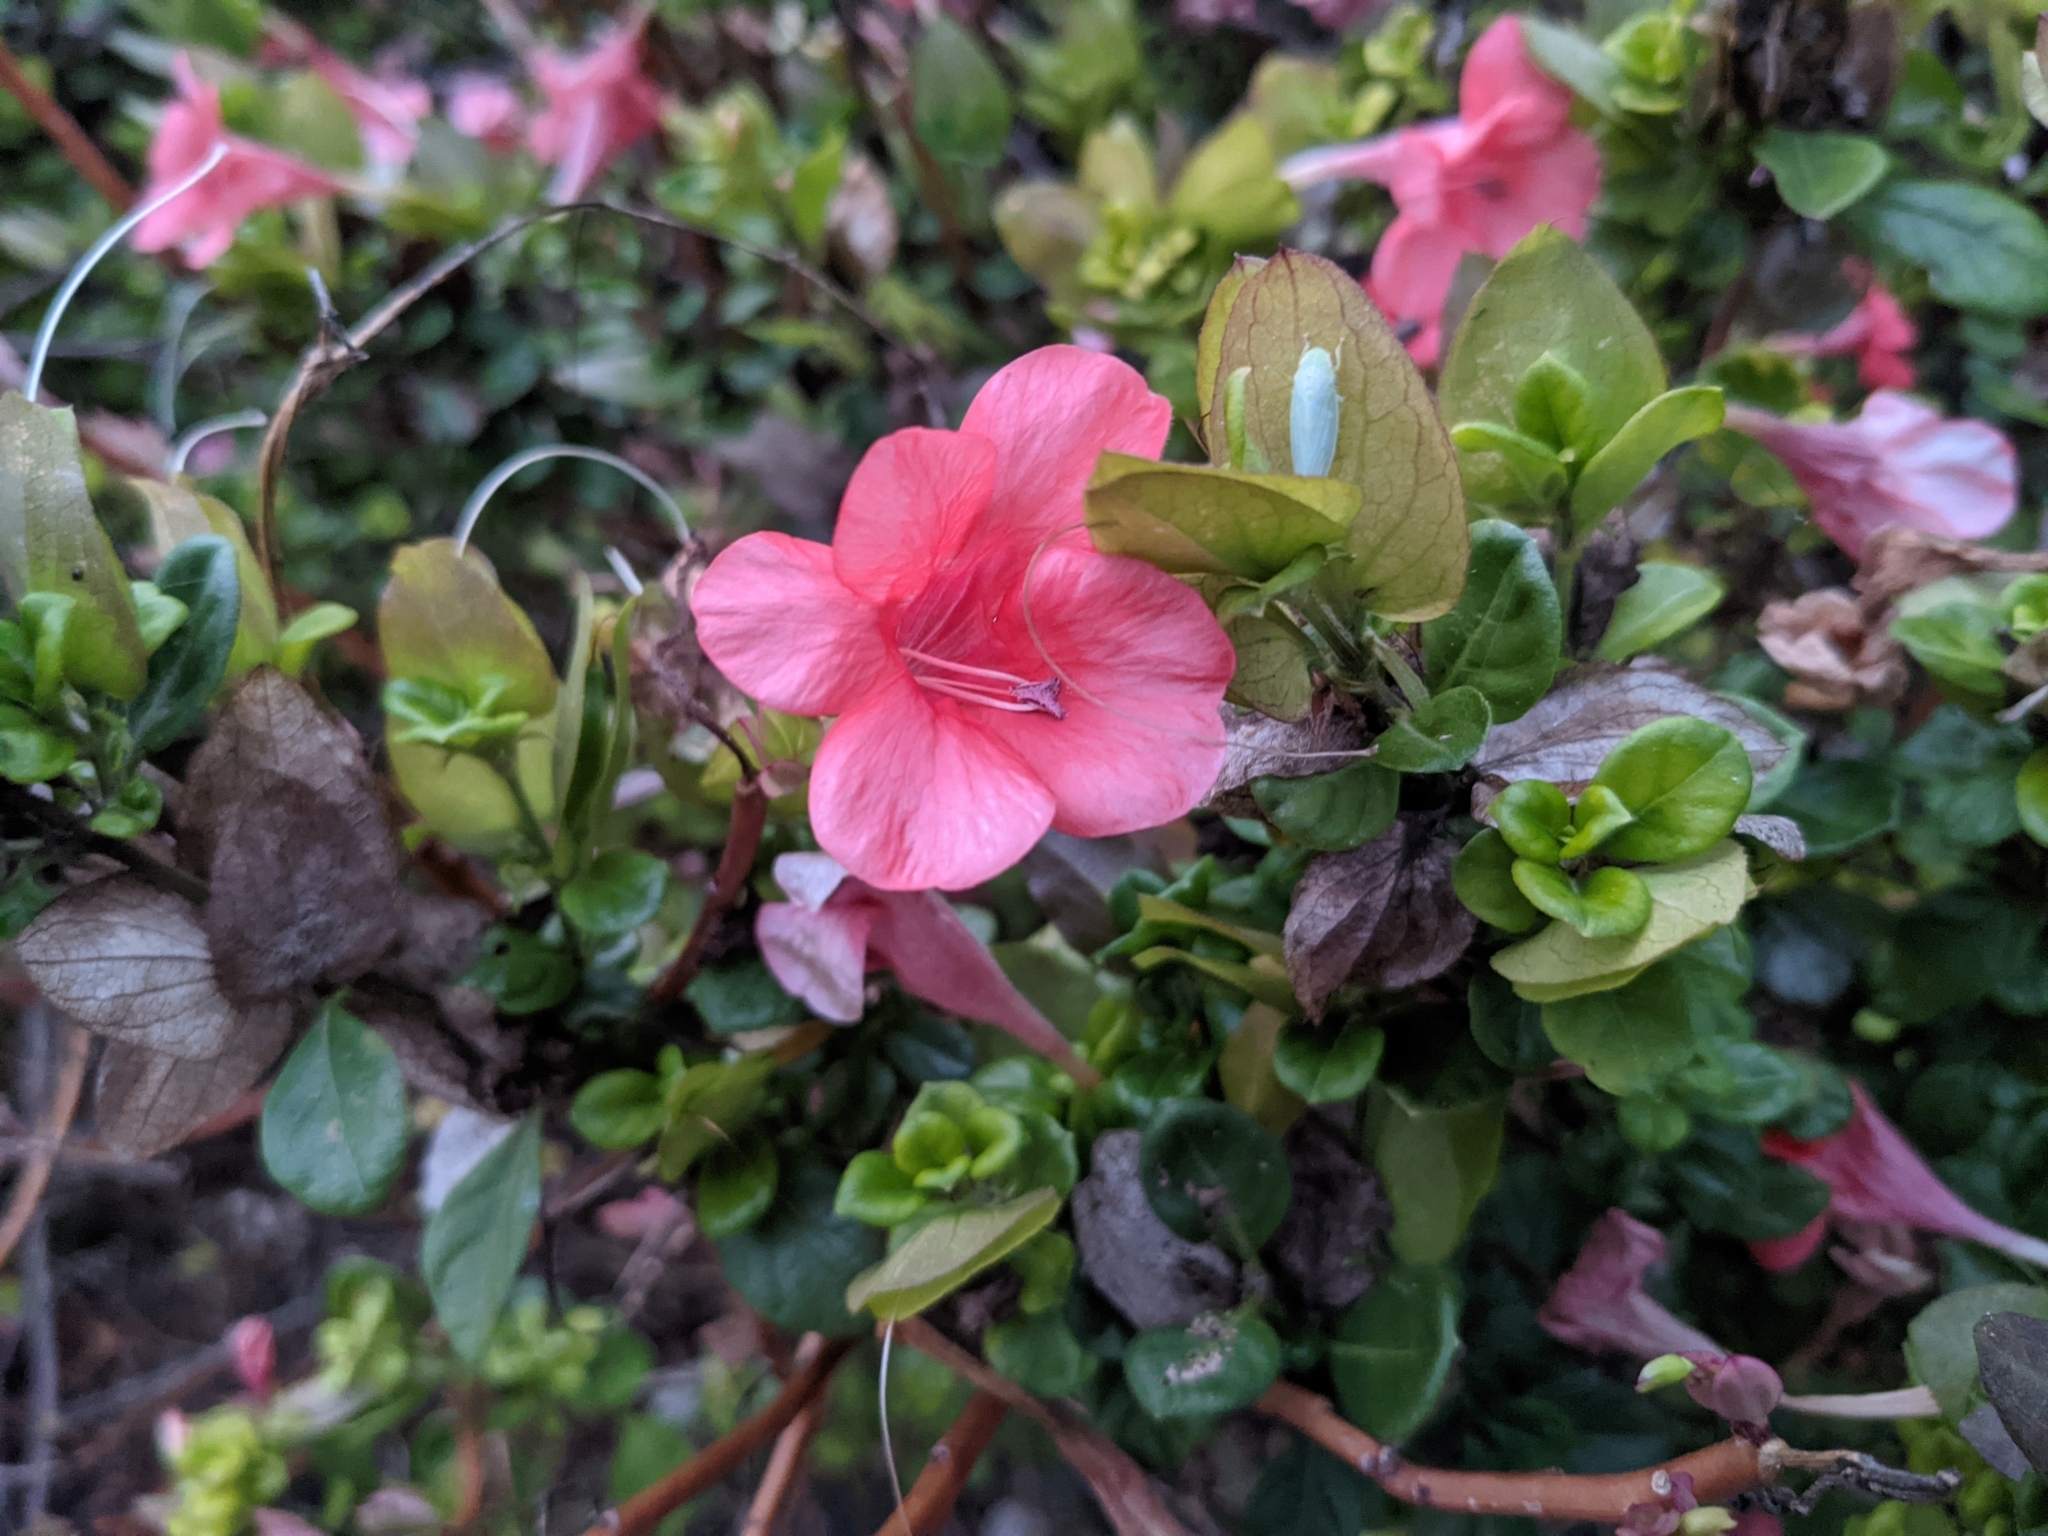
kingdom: Plantae
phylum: Tracheophyta
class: Magnoliopsida
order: Lamiales
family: Acanthaceae
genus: Barleria
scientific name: Barleria repens
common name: Pink-ruellia
